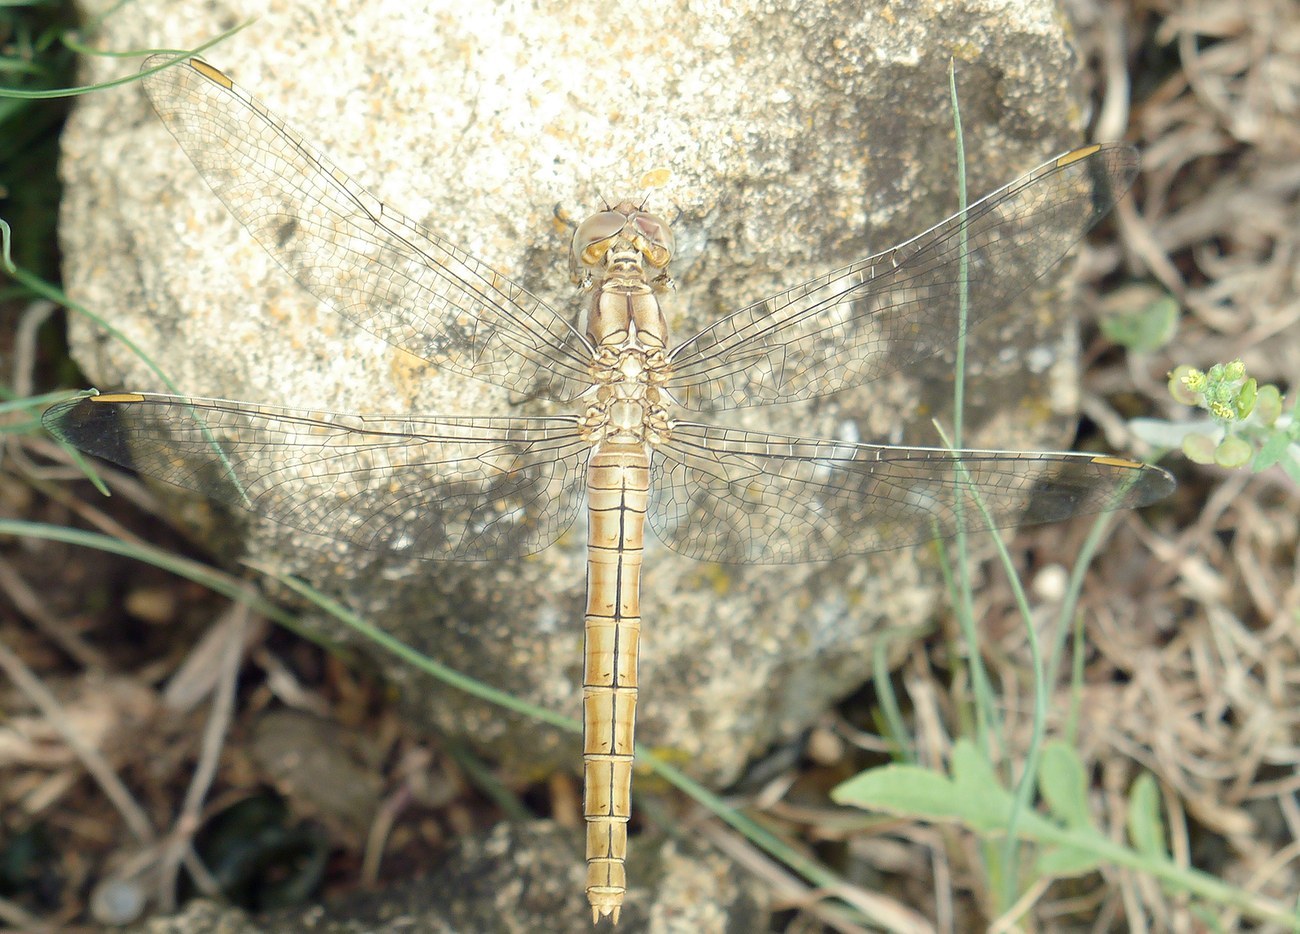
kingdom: Animalia
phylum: Arthropoda
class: Insecta
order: Odonata
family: Libellulidae
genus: Orthetrum
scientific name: Orthetrum brunneum
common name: Southern skimmer
